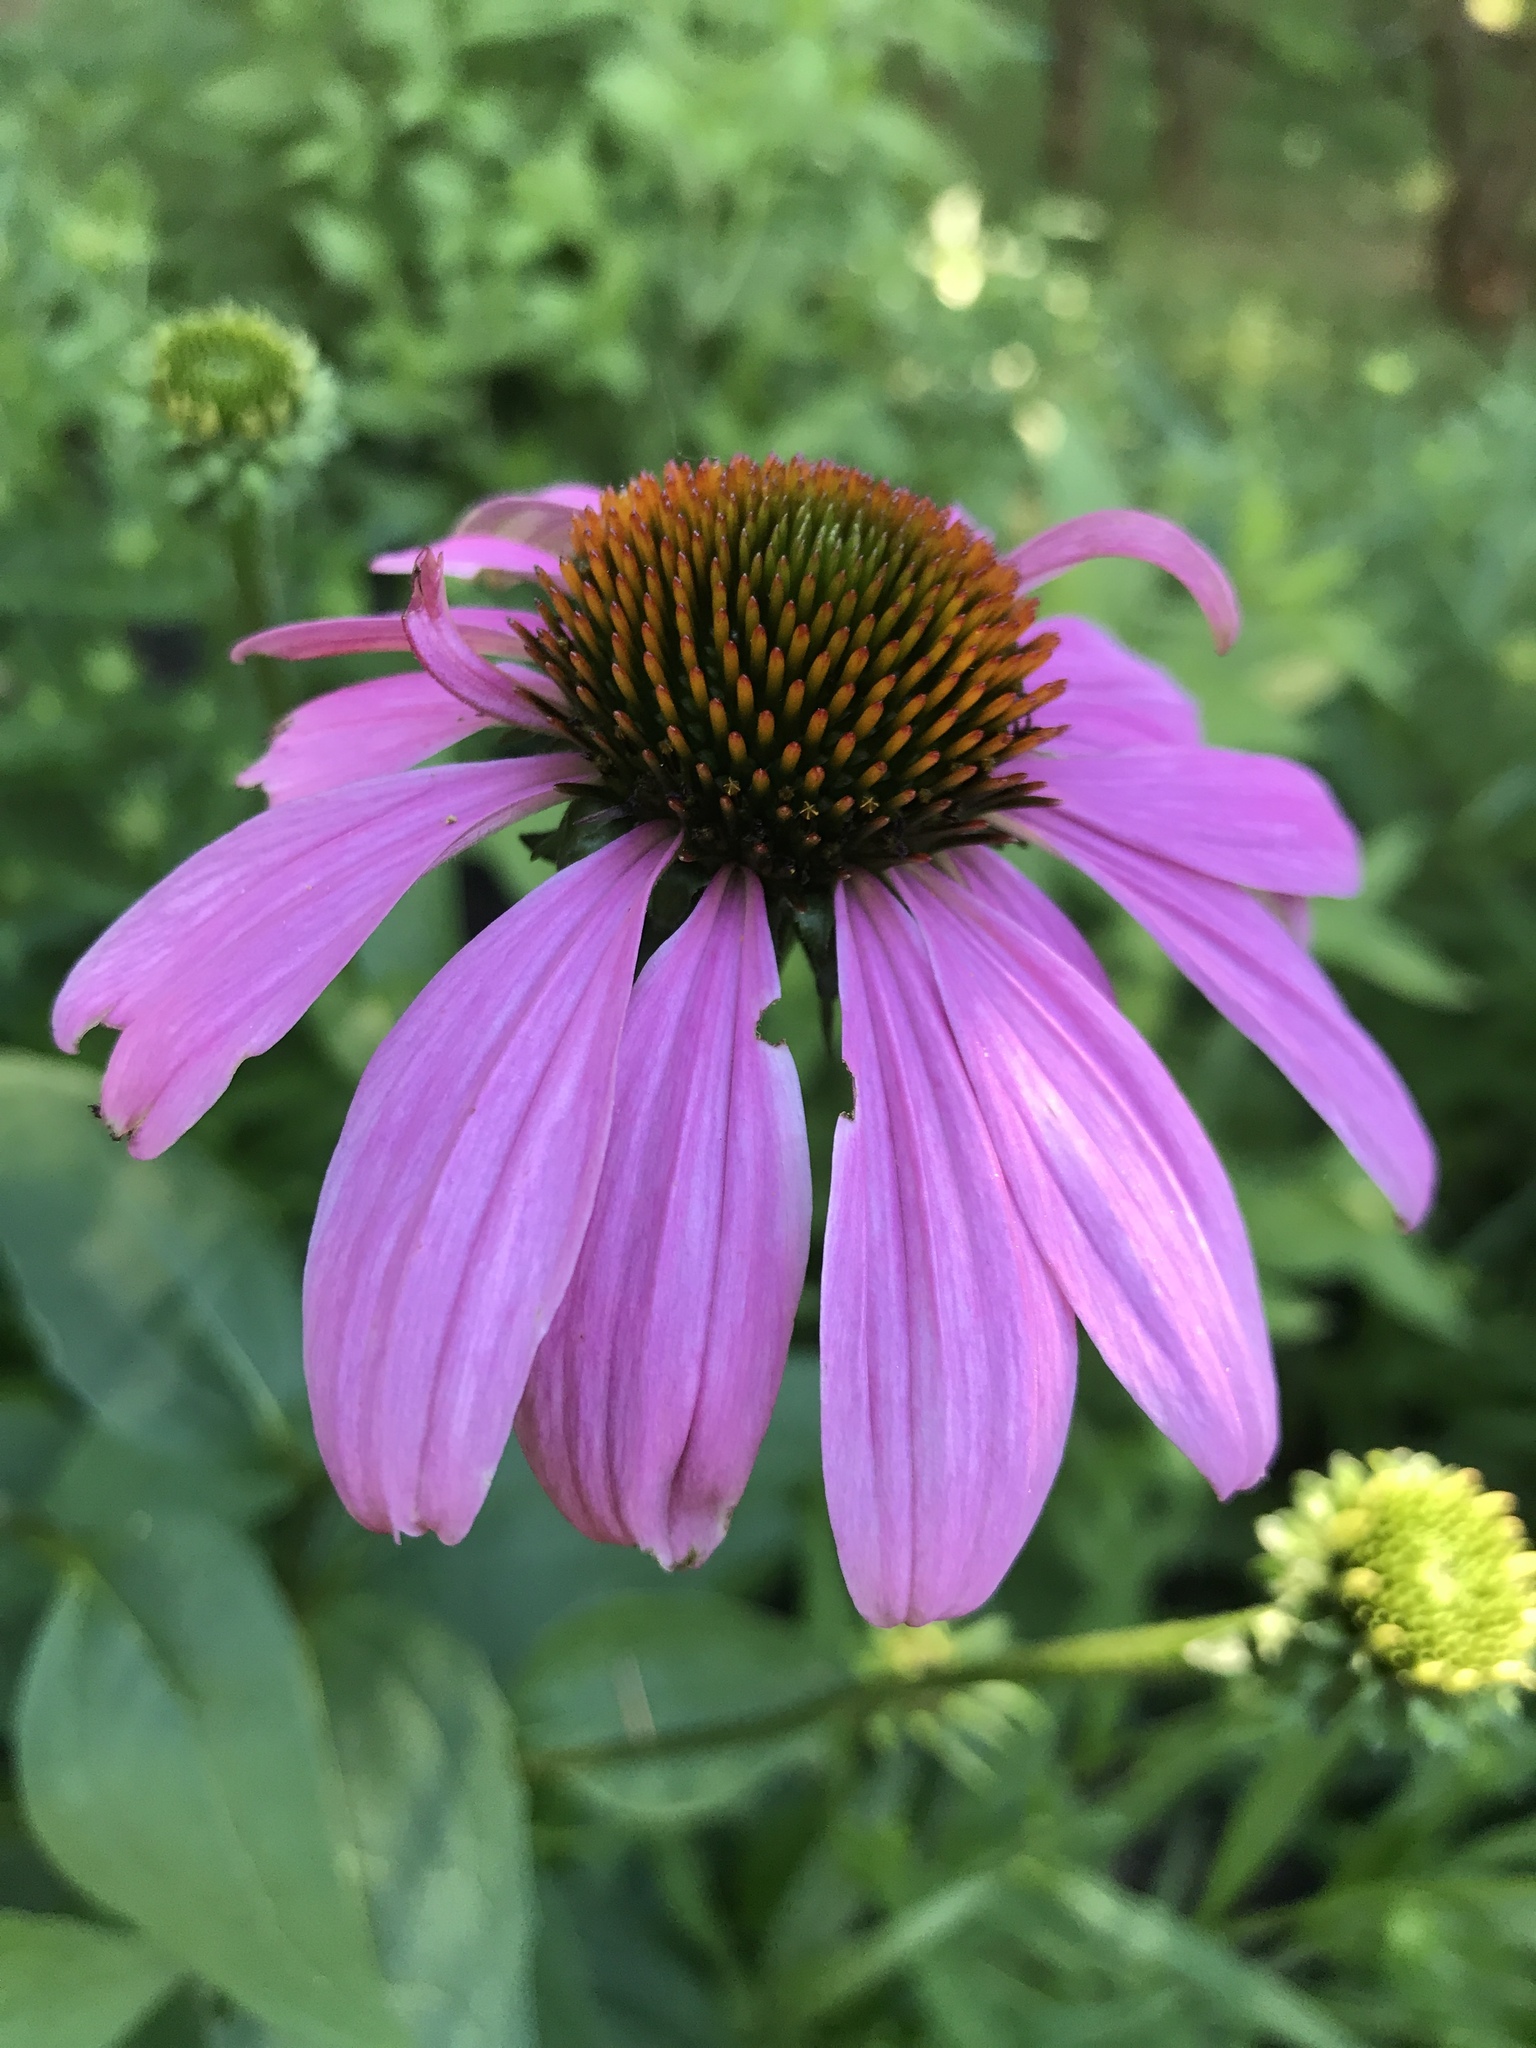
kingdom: Plantae
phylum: Tracheophyta
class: Magnoliopsida
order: Asterales
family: Asteraceae
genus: Echinacea
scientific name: Echinacea purpurea
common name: Broad-leaved purple coneflower
